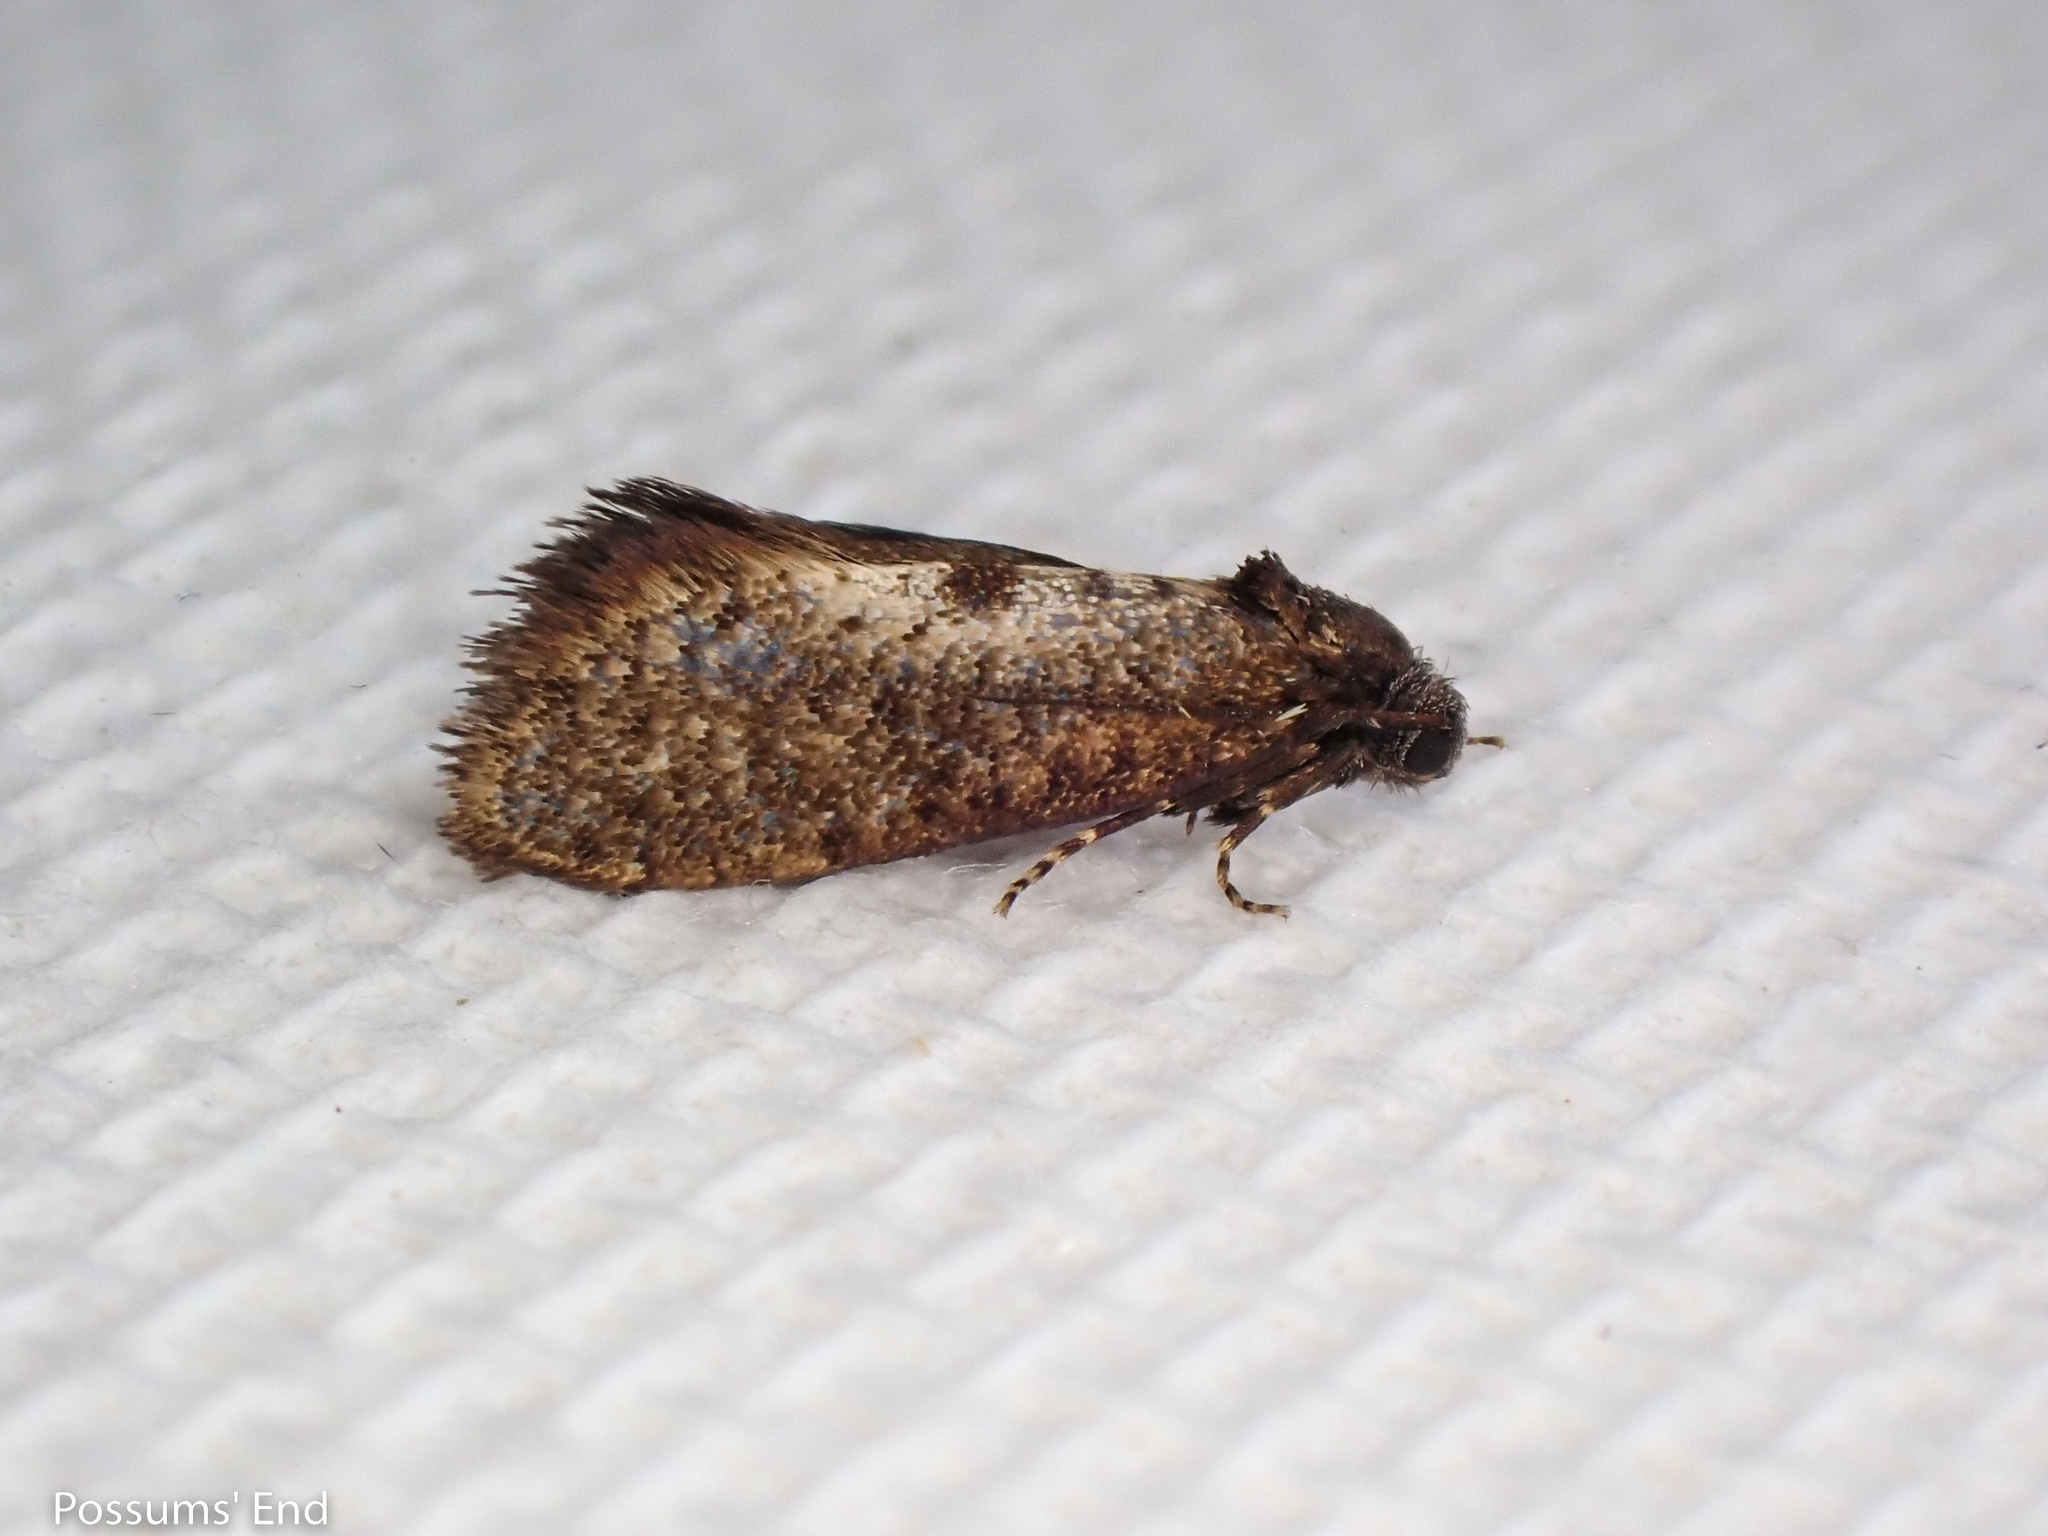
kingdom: Animalia
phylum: Arthropoda
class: Insecta
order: Lepidoptera
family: Psychidae
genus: Mallobathra
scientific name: Mallobathra perisseuta
